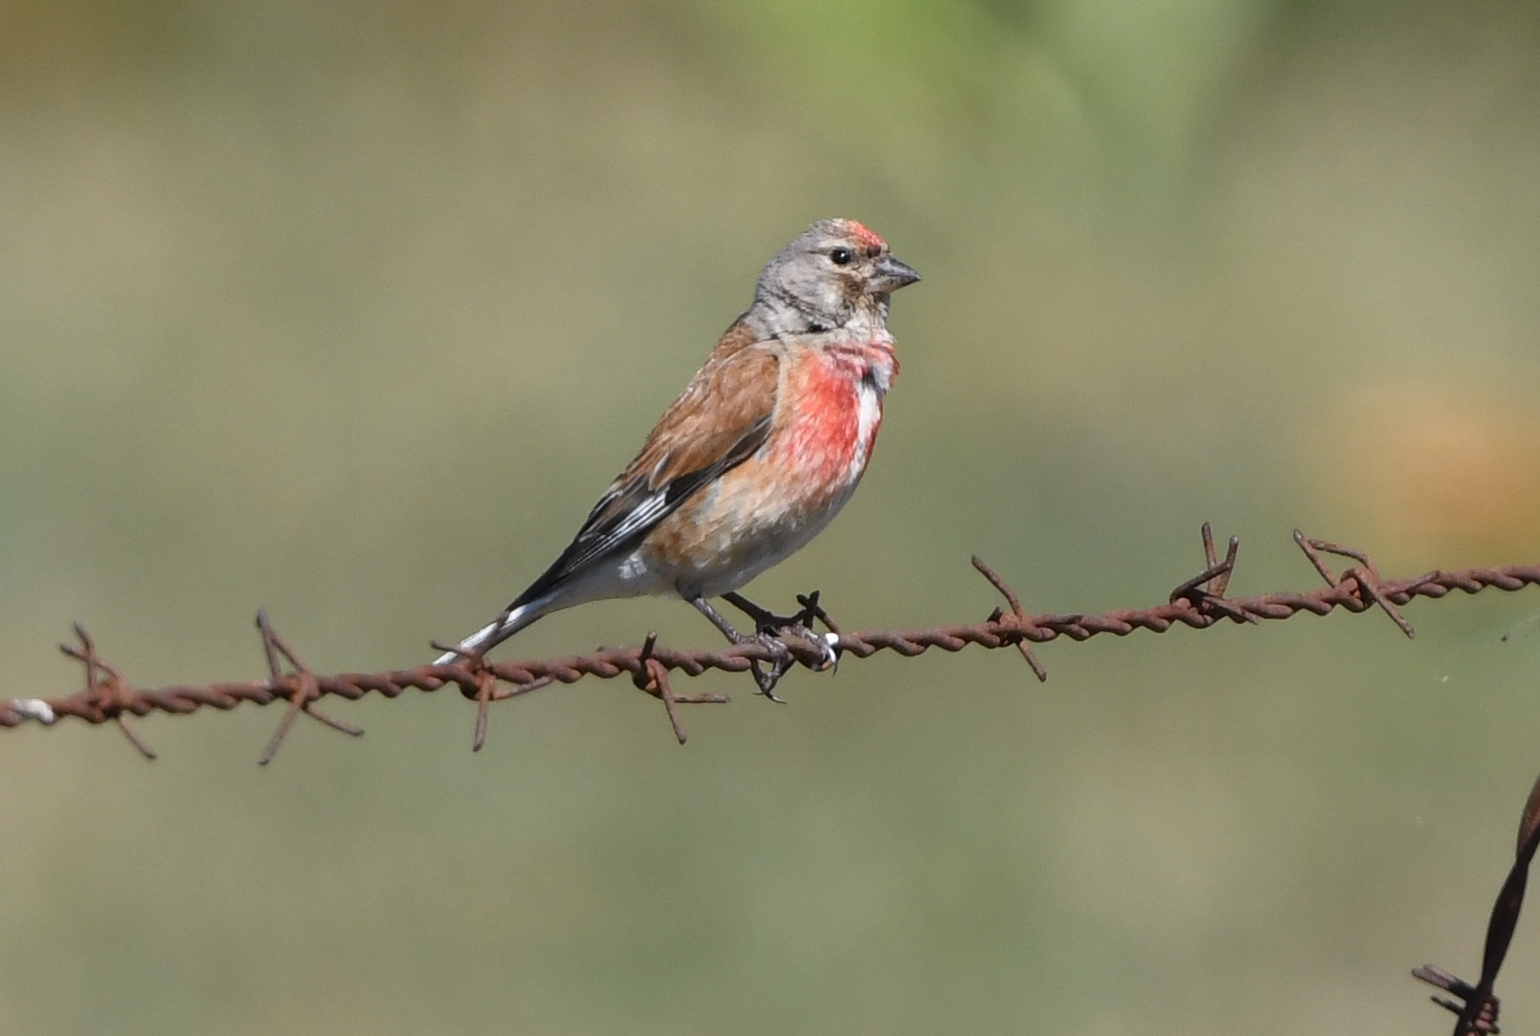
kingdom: Animalia
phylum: Chordata
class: Aves
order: Passeriformes
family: Fringillidae
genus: Linaria
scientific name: Linaria cannabina
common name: Common linnet
